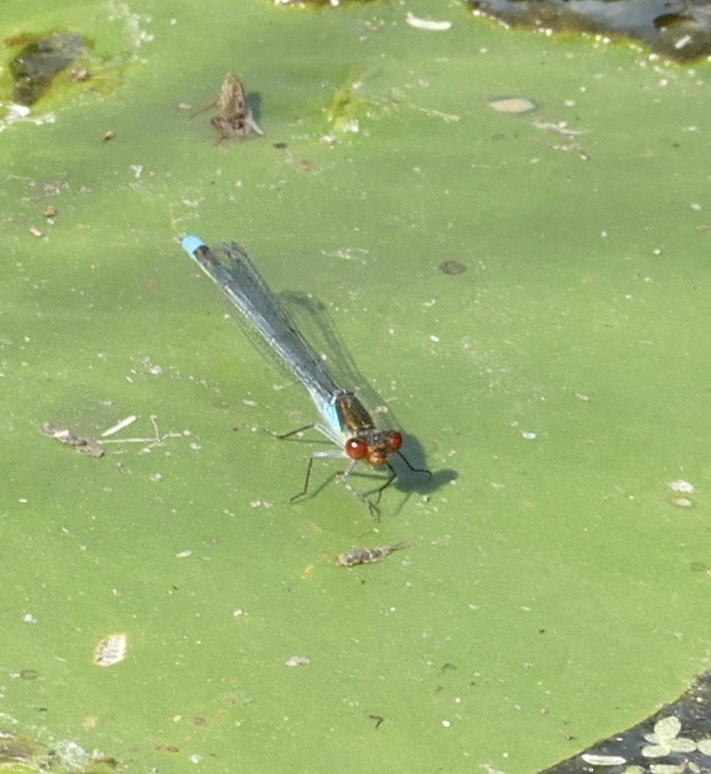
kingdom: Animalia
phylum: Arthropoda
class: Insecta
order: Odonata
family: Coenagrionidae
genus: Erythromma
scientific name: Erythromma najas
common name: Red-eyed damselfly
